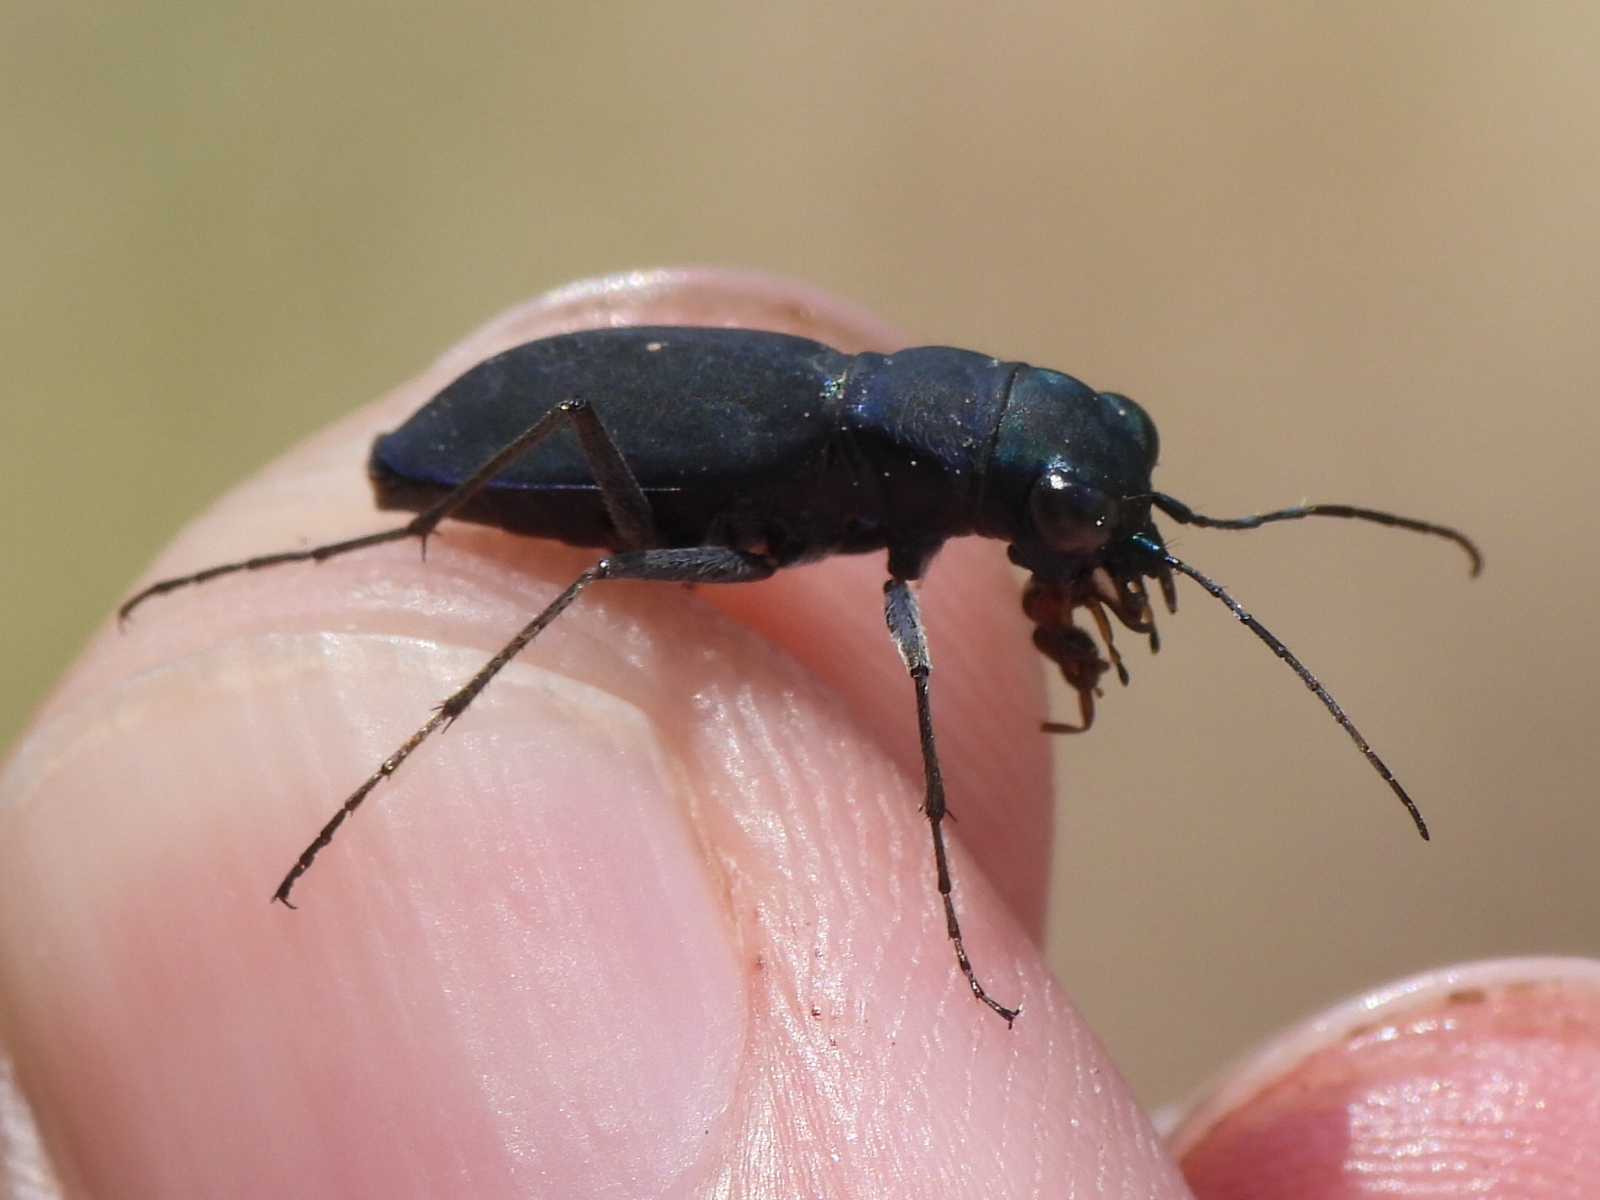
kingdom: Animalia
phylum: Arthropoda
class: Insecta
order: Coleoptera
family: Carabidae
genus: Dromochorus
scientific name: Dromochorus pruininus
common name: Frosted dromo tiger beetle
